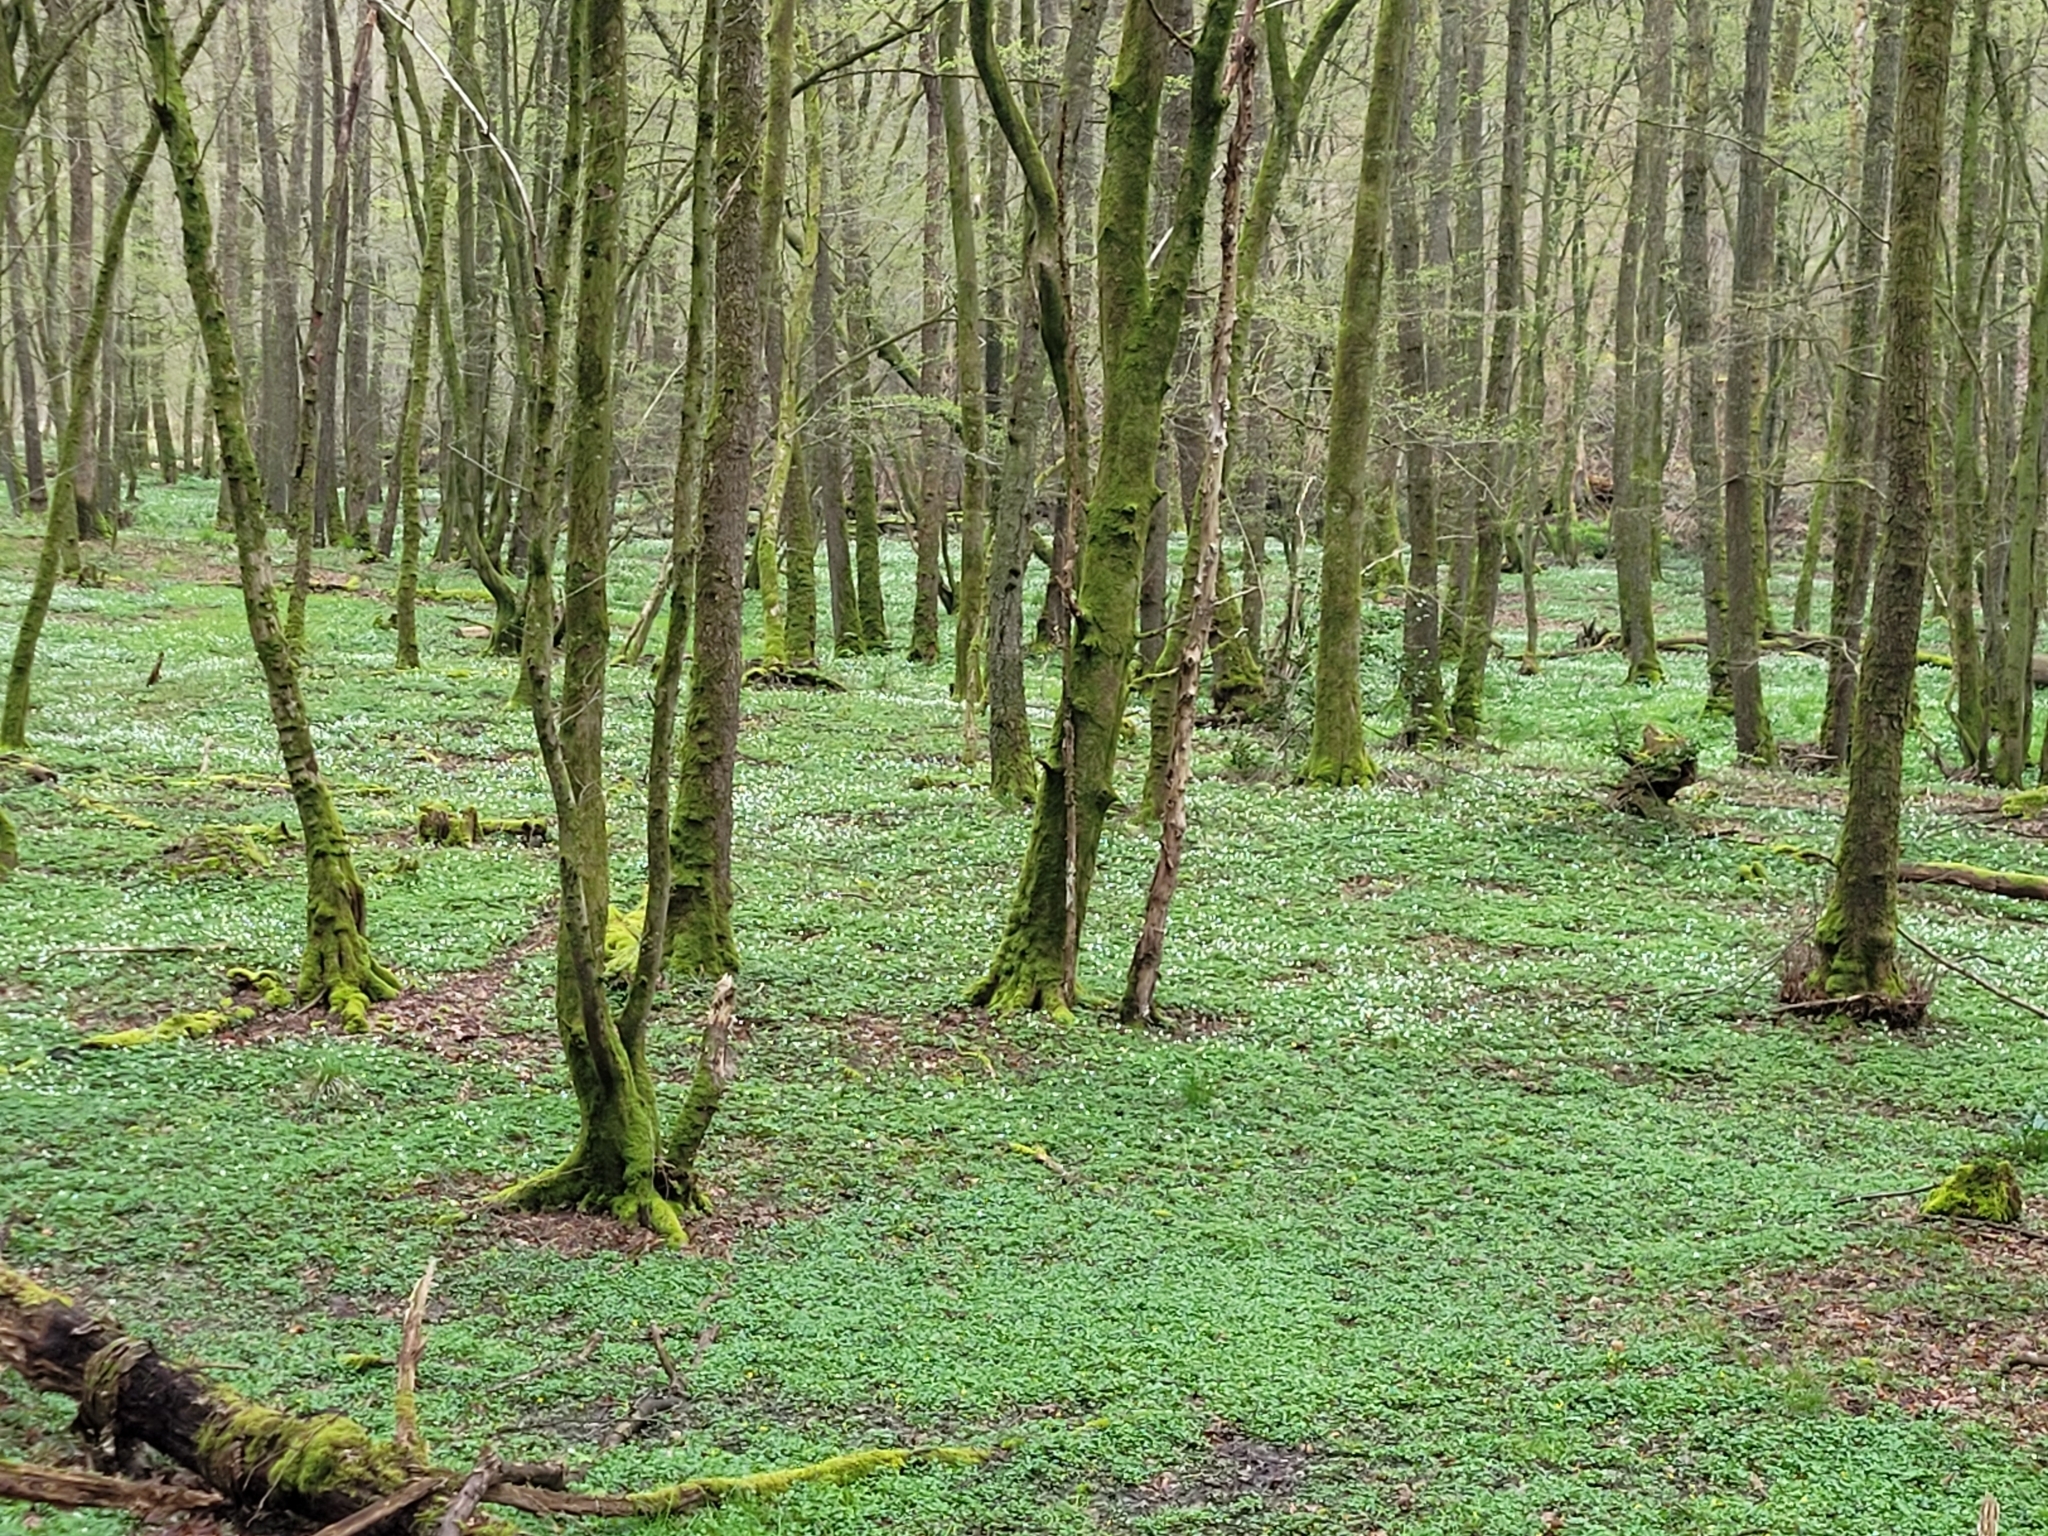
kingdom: Plantae
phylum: Tracheophyta
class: Magnoliopsida
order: Ranunculales
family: Ranunculaceae
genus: Anemone
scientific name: Anemone nemorosa
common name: Wood anemone
